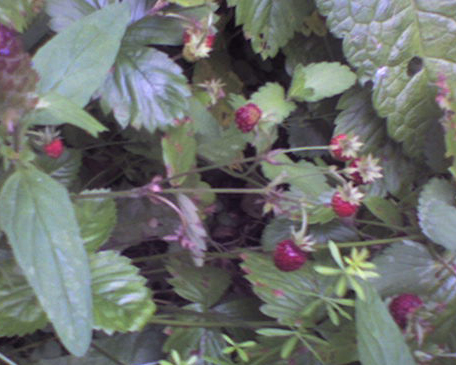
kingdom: Plantae
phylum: Tracheophyta
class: Magnoliopsida
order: Rosales
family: Rosaceae
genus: Fragaria
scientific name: Fragaria vesca
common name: Wild strawberry
